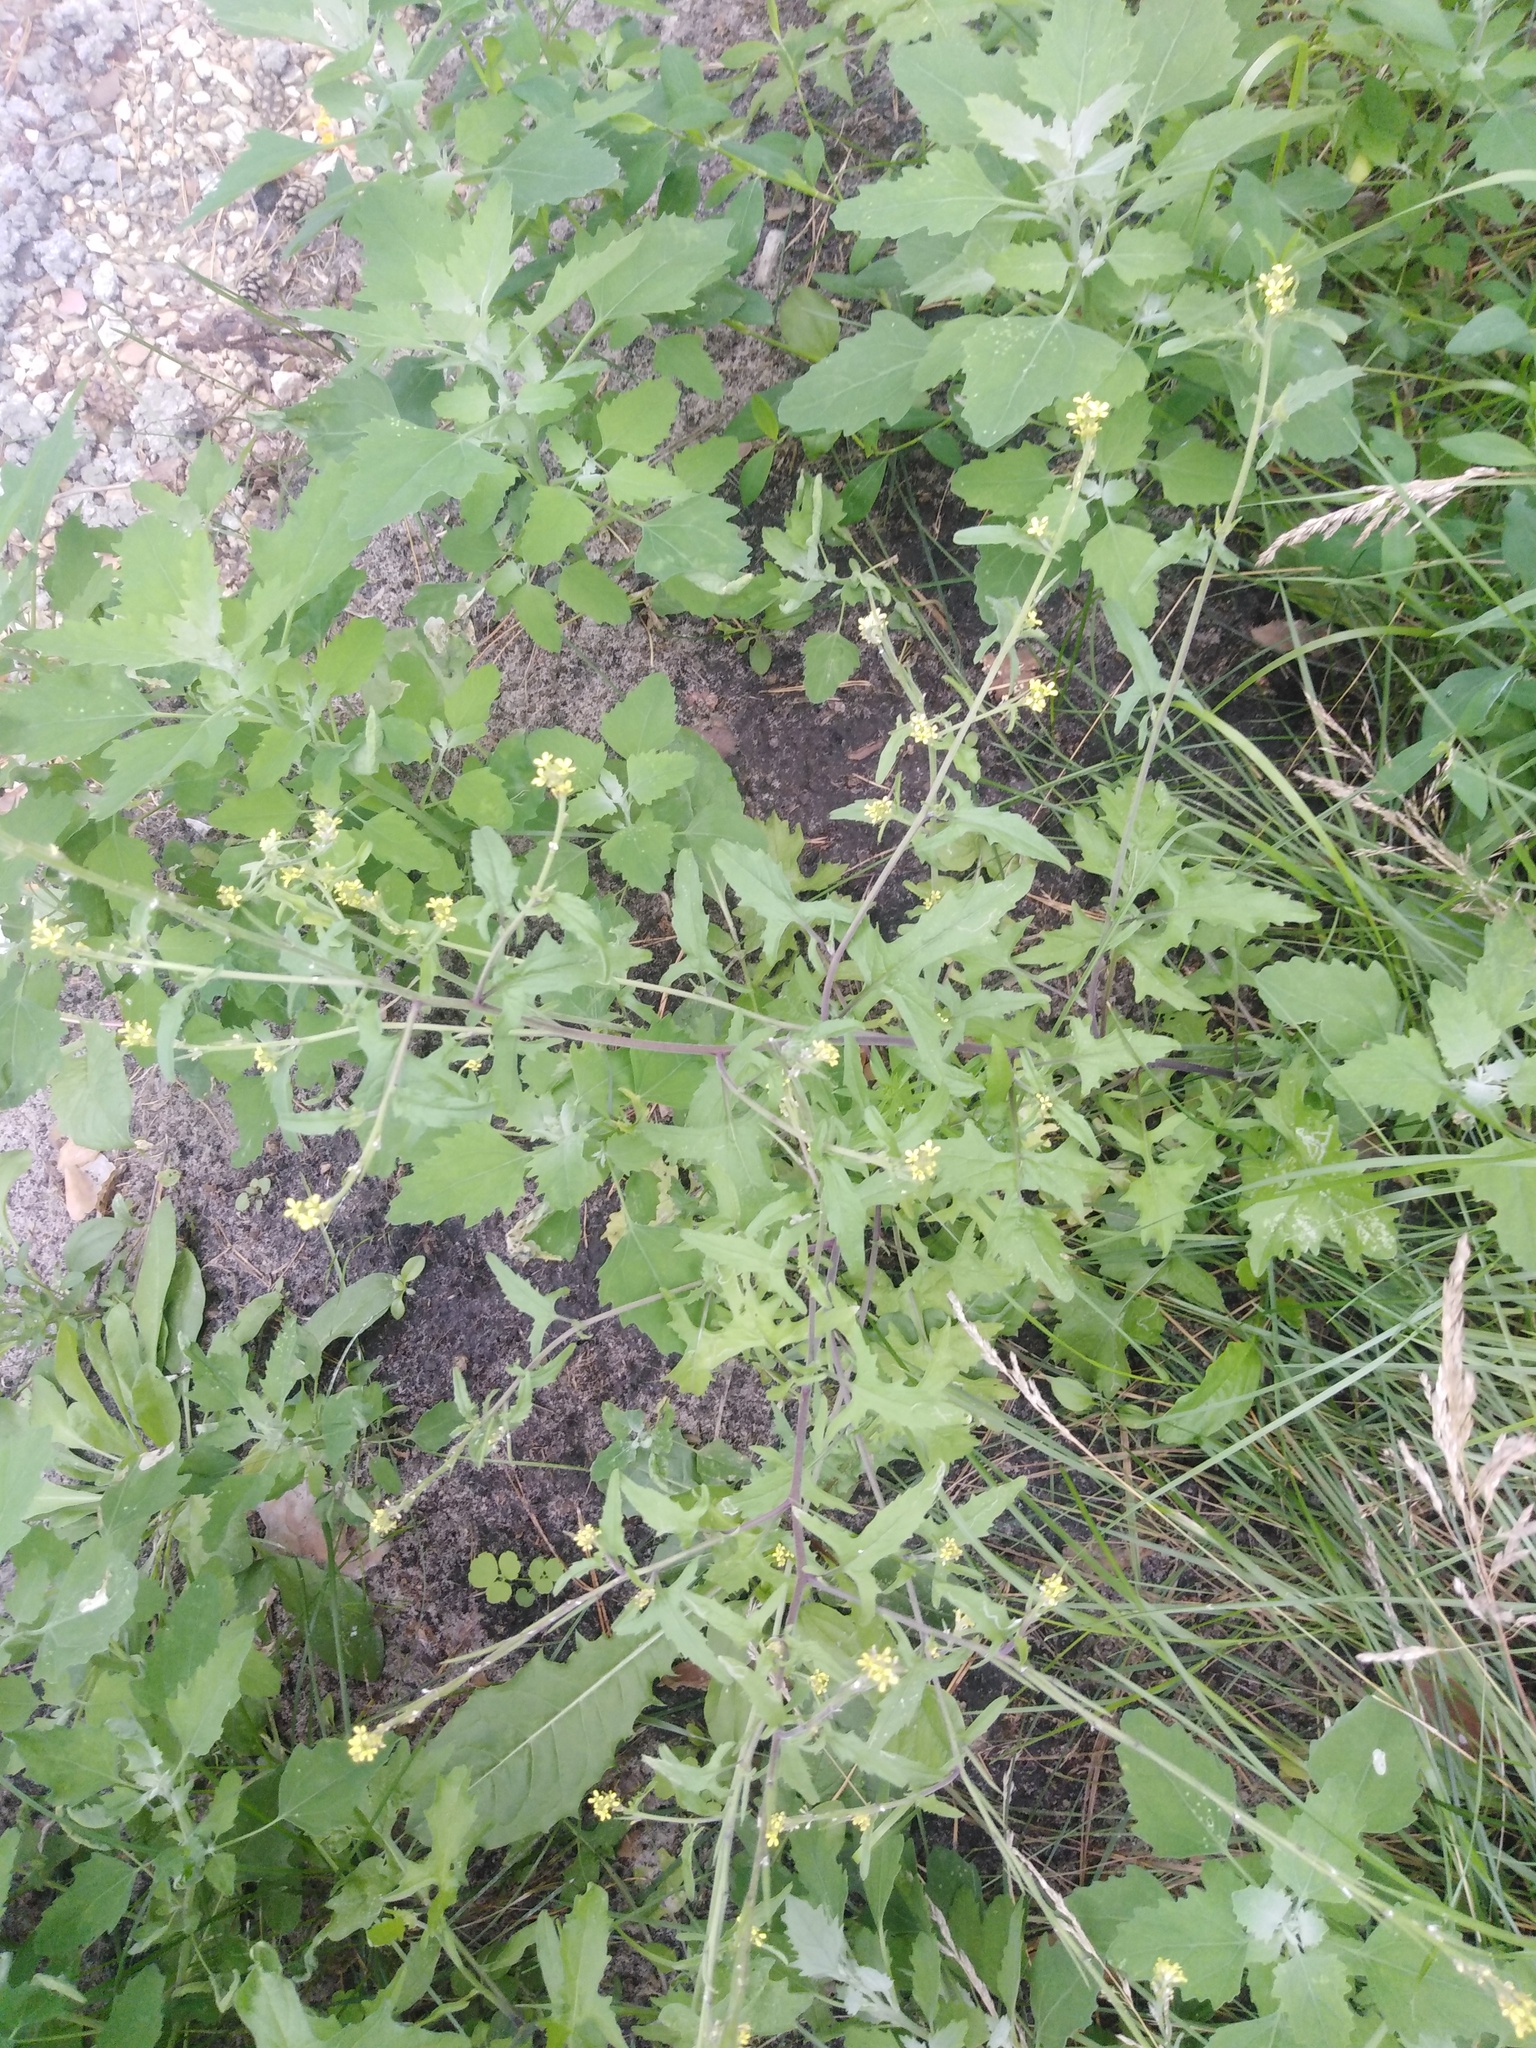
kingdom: Plantae
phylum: Tracheophyta
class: Magnoliopsida
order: Brassicales
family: Brassicaceae
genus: Sisymbrium
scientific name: Sisymbrium officinale
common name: Hedge mustard
